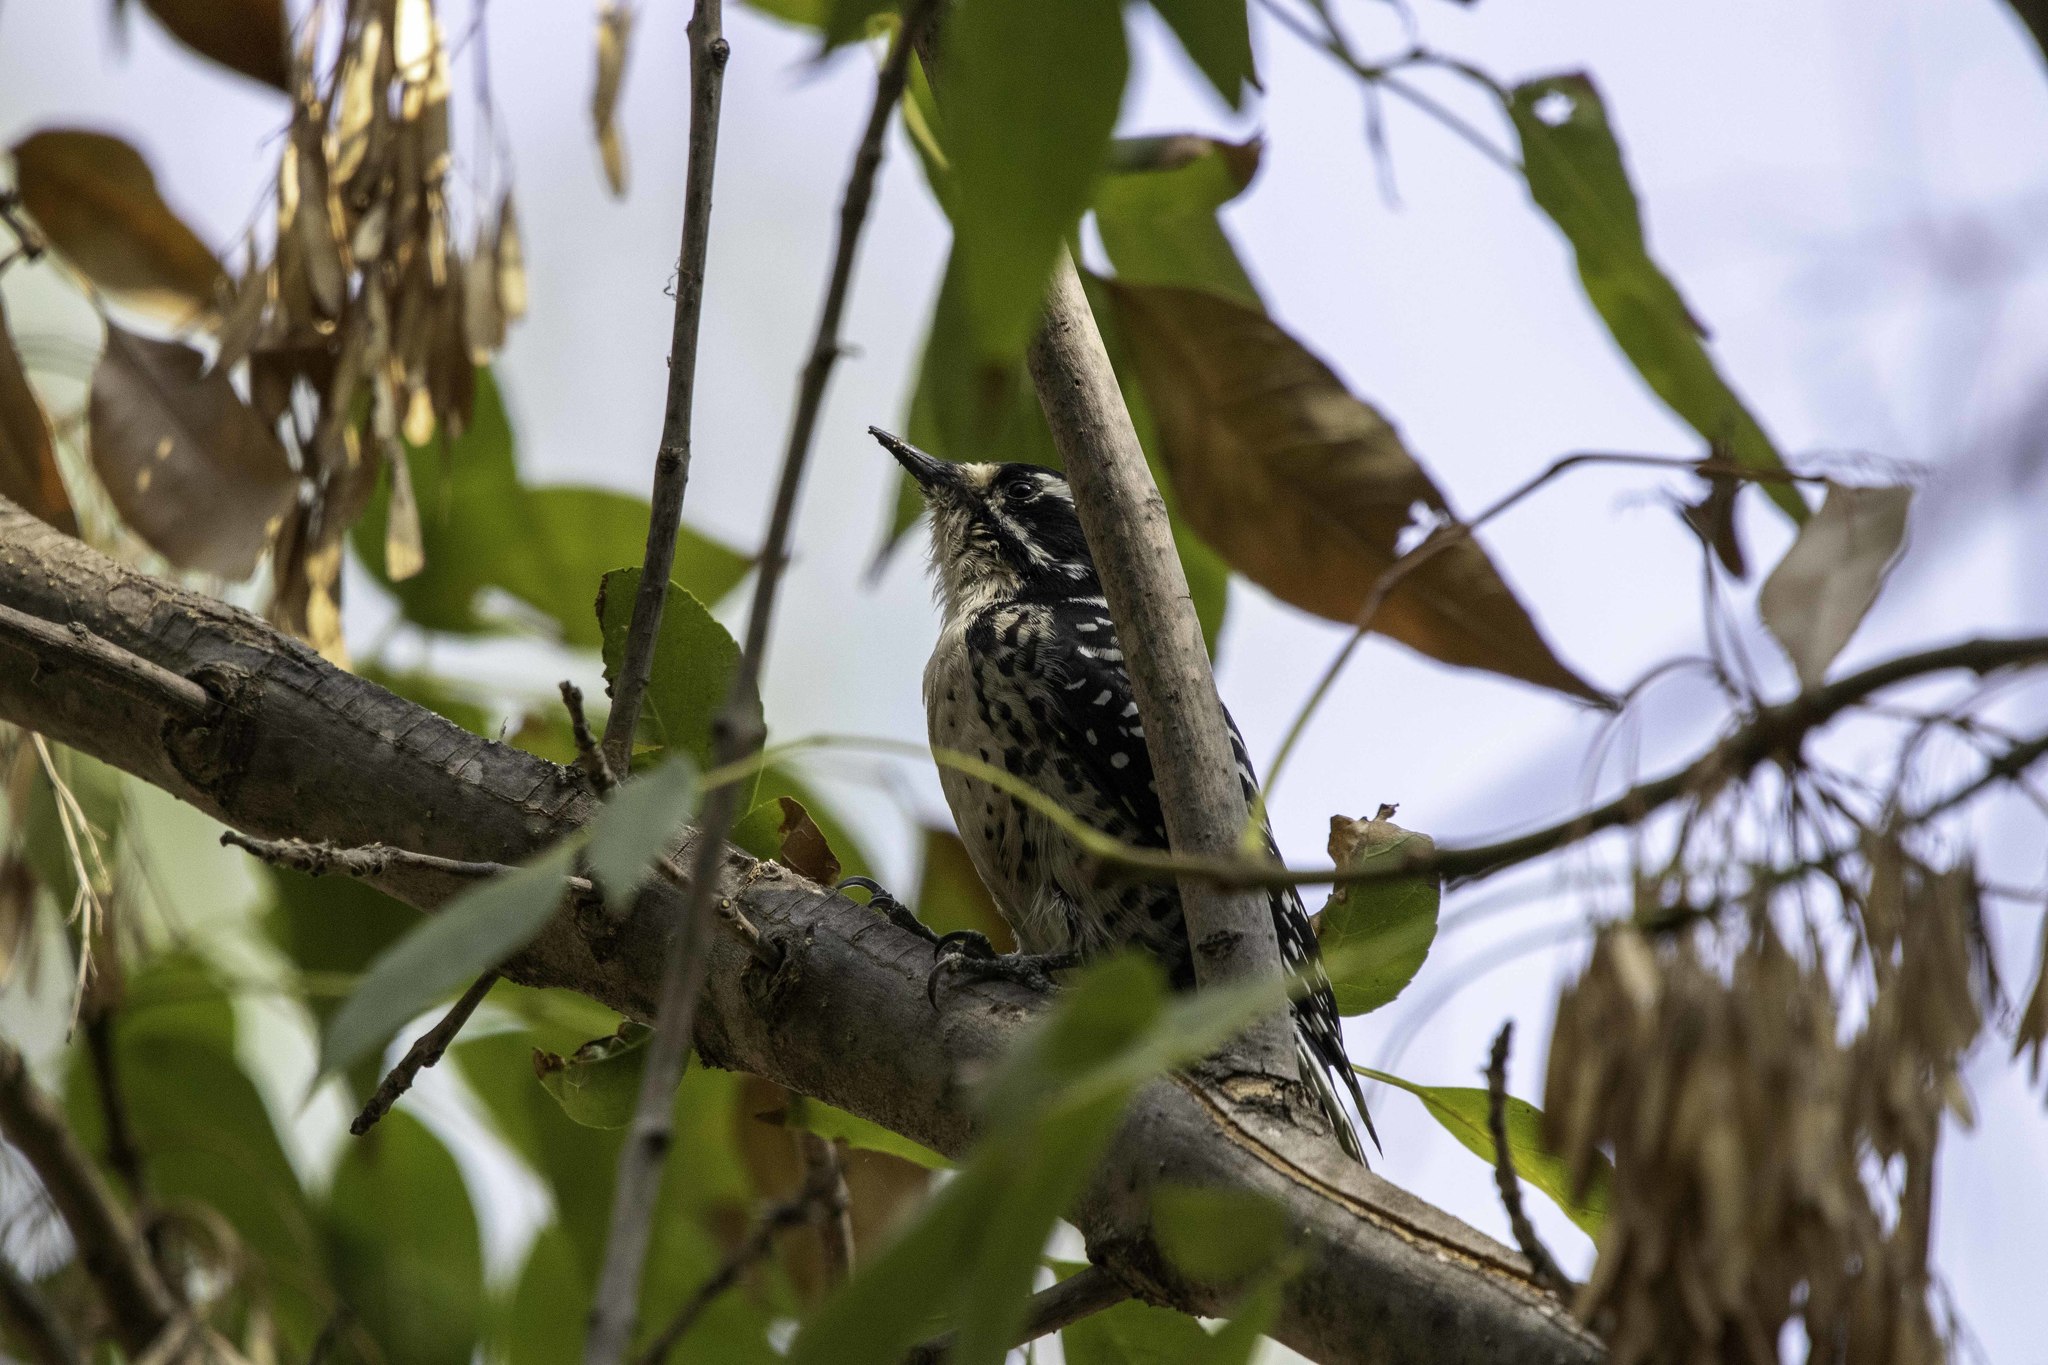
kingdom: Animalia
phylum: Chordata
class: Aves
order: Piciformes
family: Picidae
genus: Dryobates
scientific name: Dryobates nuttallii
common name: Nuttall's woodpecker
